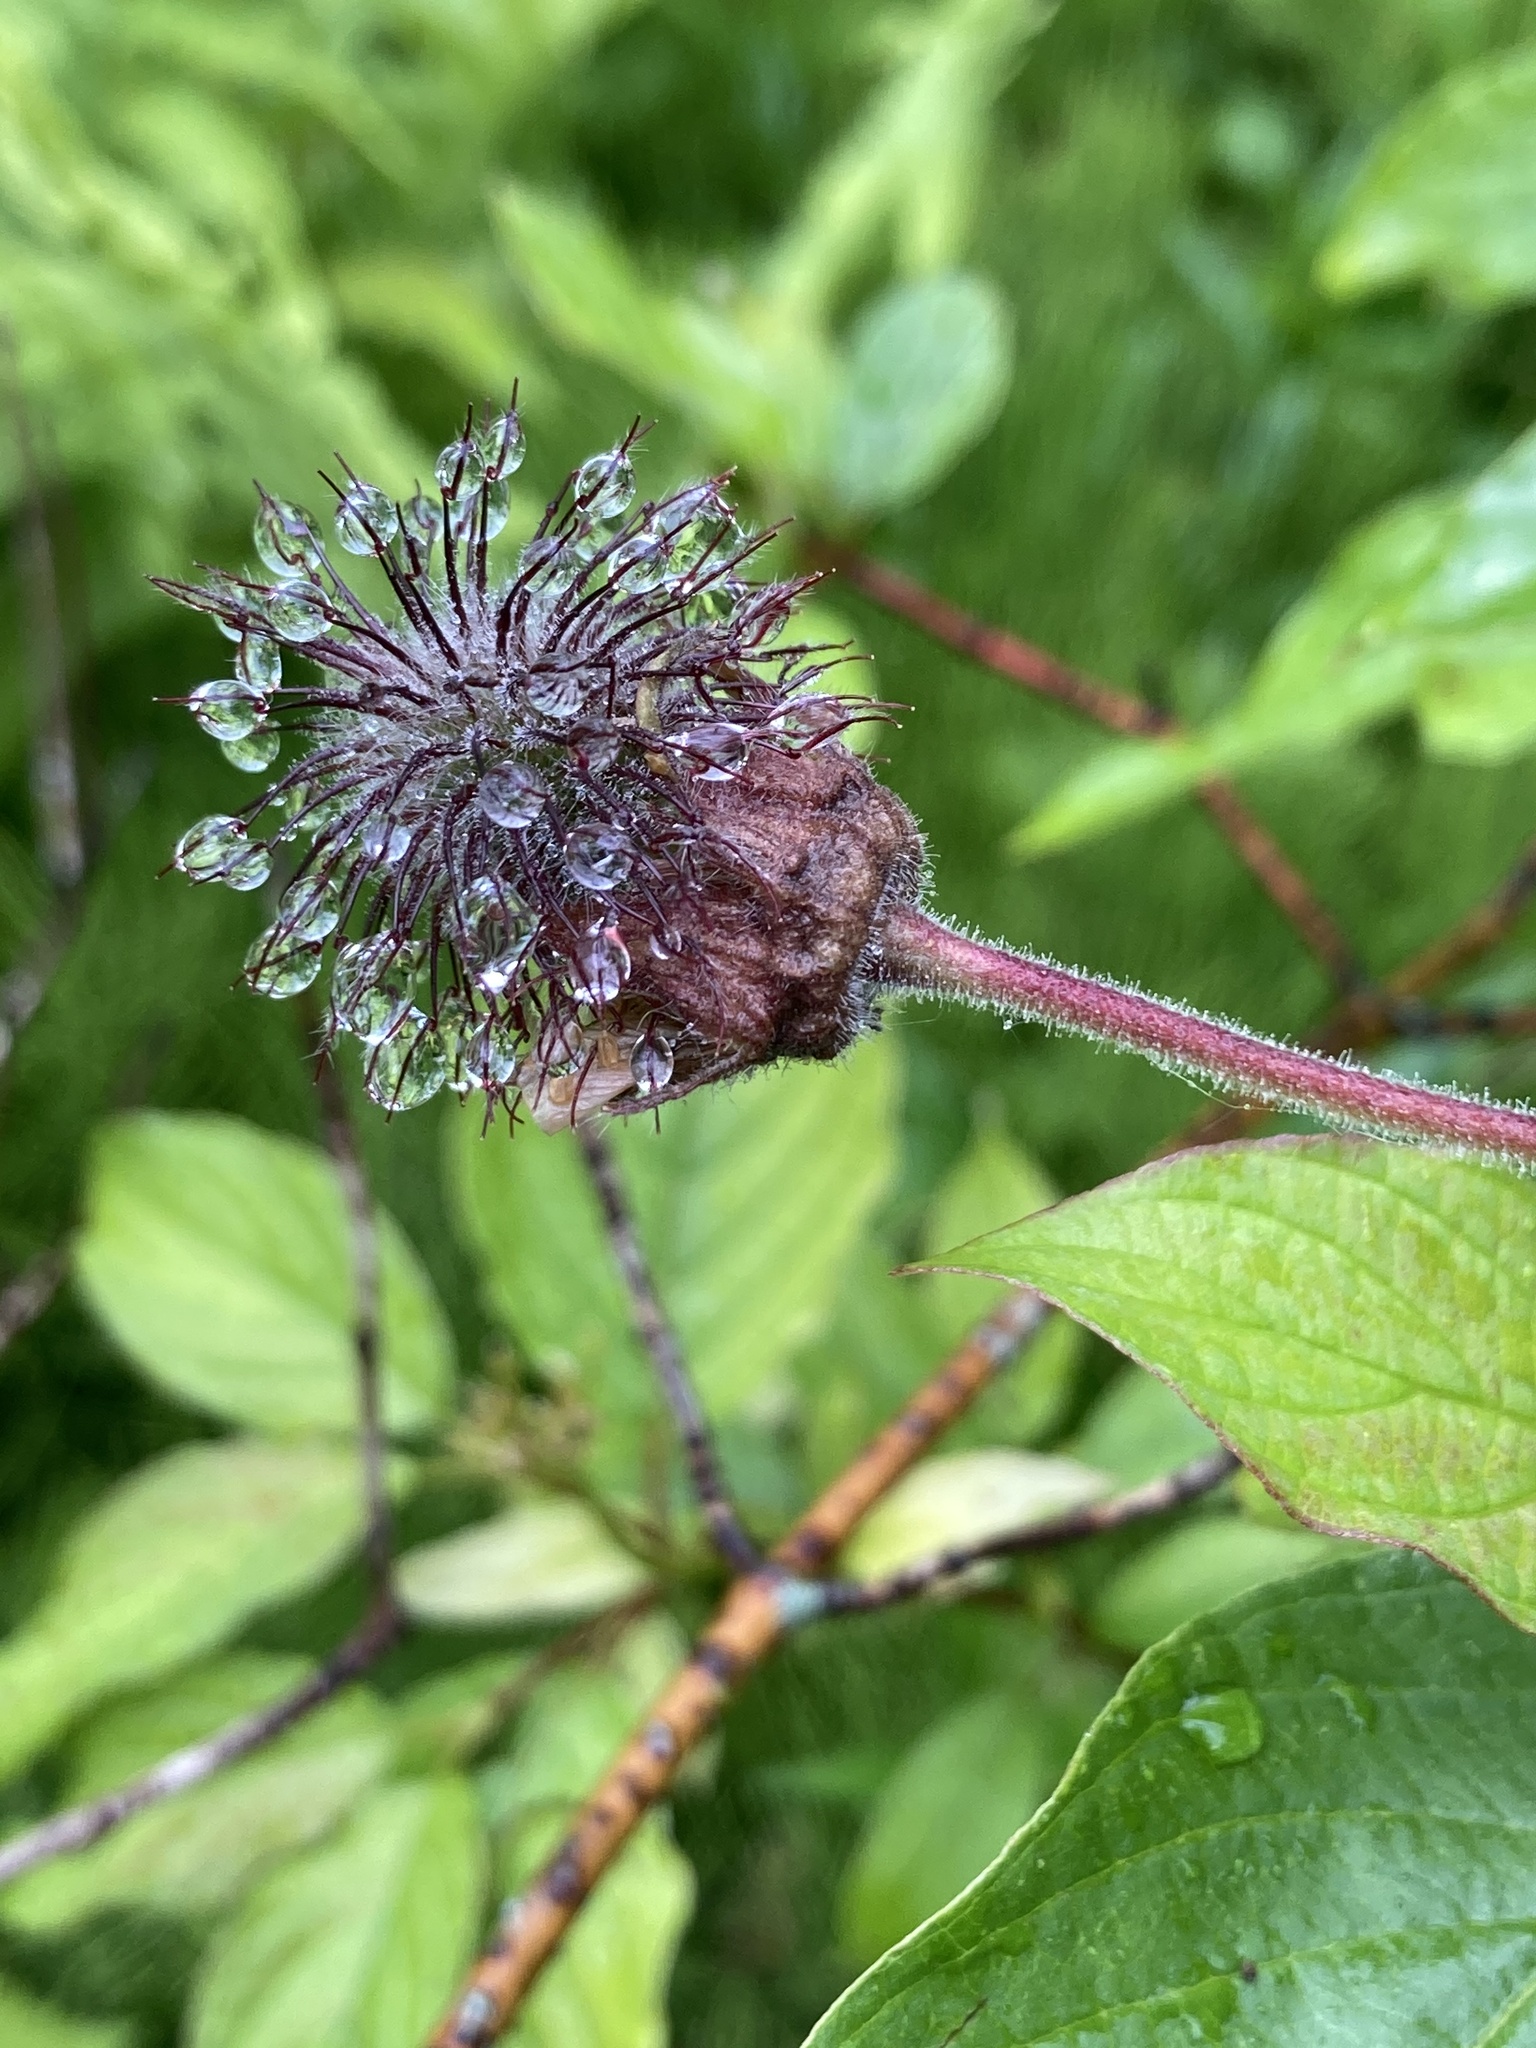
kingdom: Plantae
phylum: Tracheophyta
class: Magnoliopsida
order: Rosales
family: Rosaceae
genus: Geum
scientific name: Geum rivale
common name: Water avens
